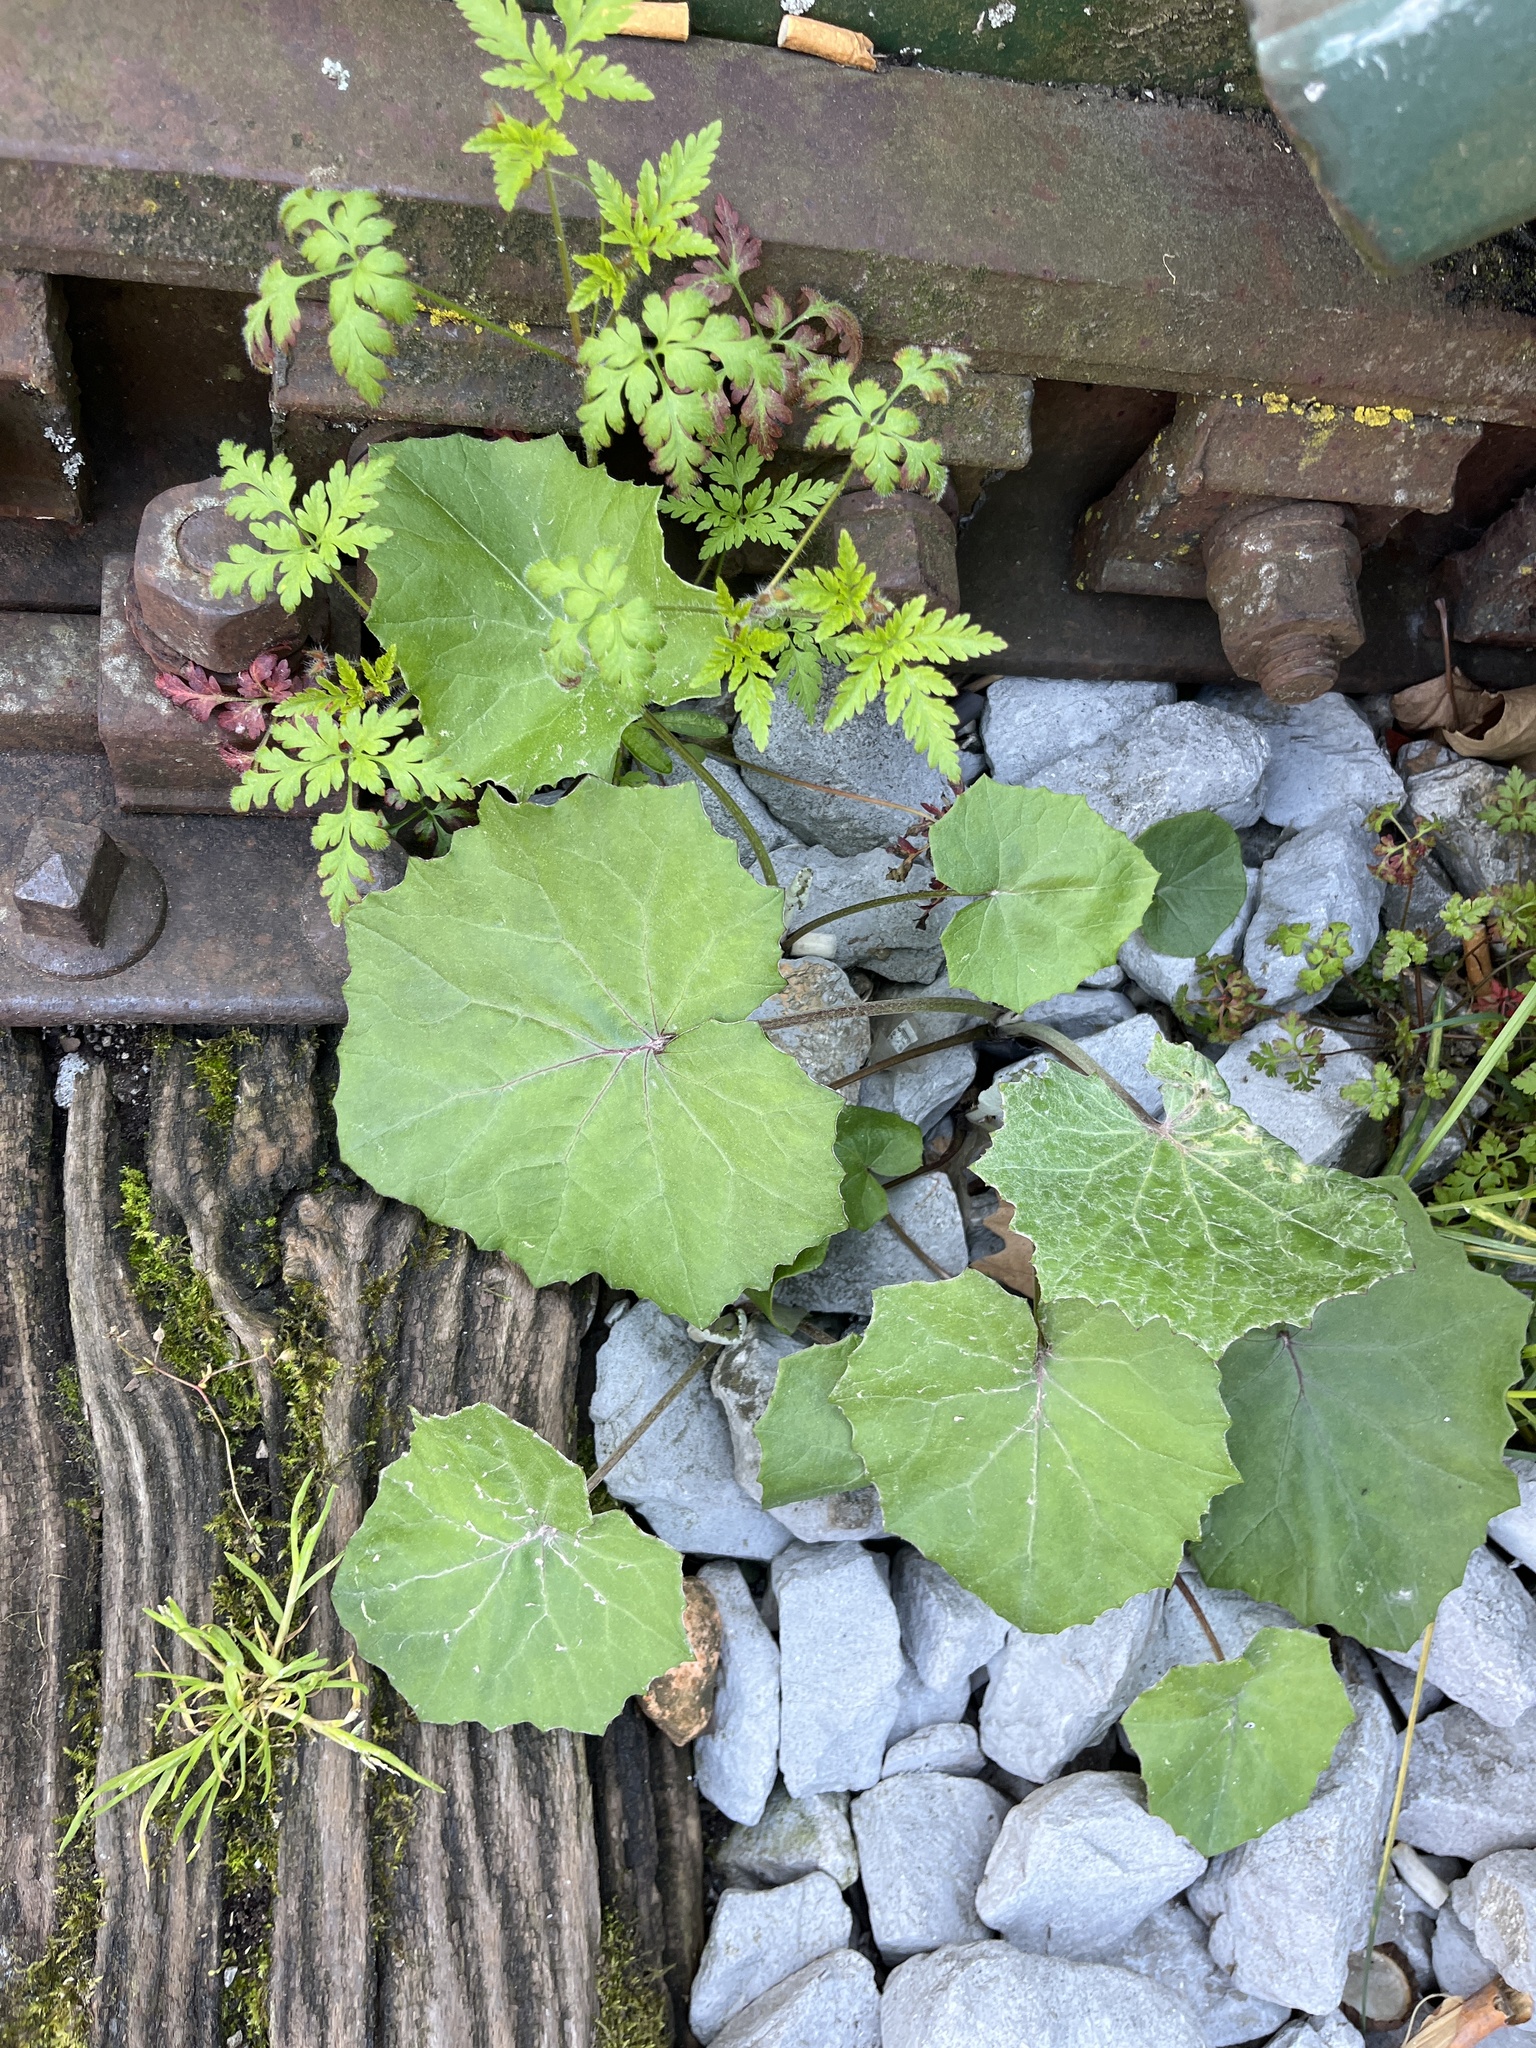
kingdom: Plantae
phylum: Tracheophyta
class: Magnoliopsida
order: Asterales
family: Asteraceae
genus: Tussilago
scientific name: Tussilago farfara
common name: Coltsfoot
